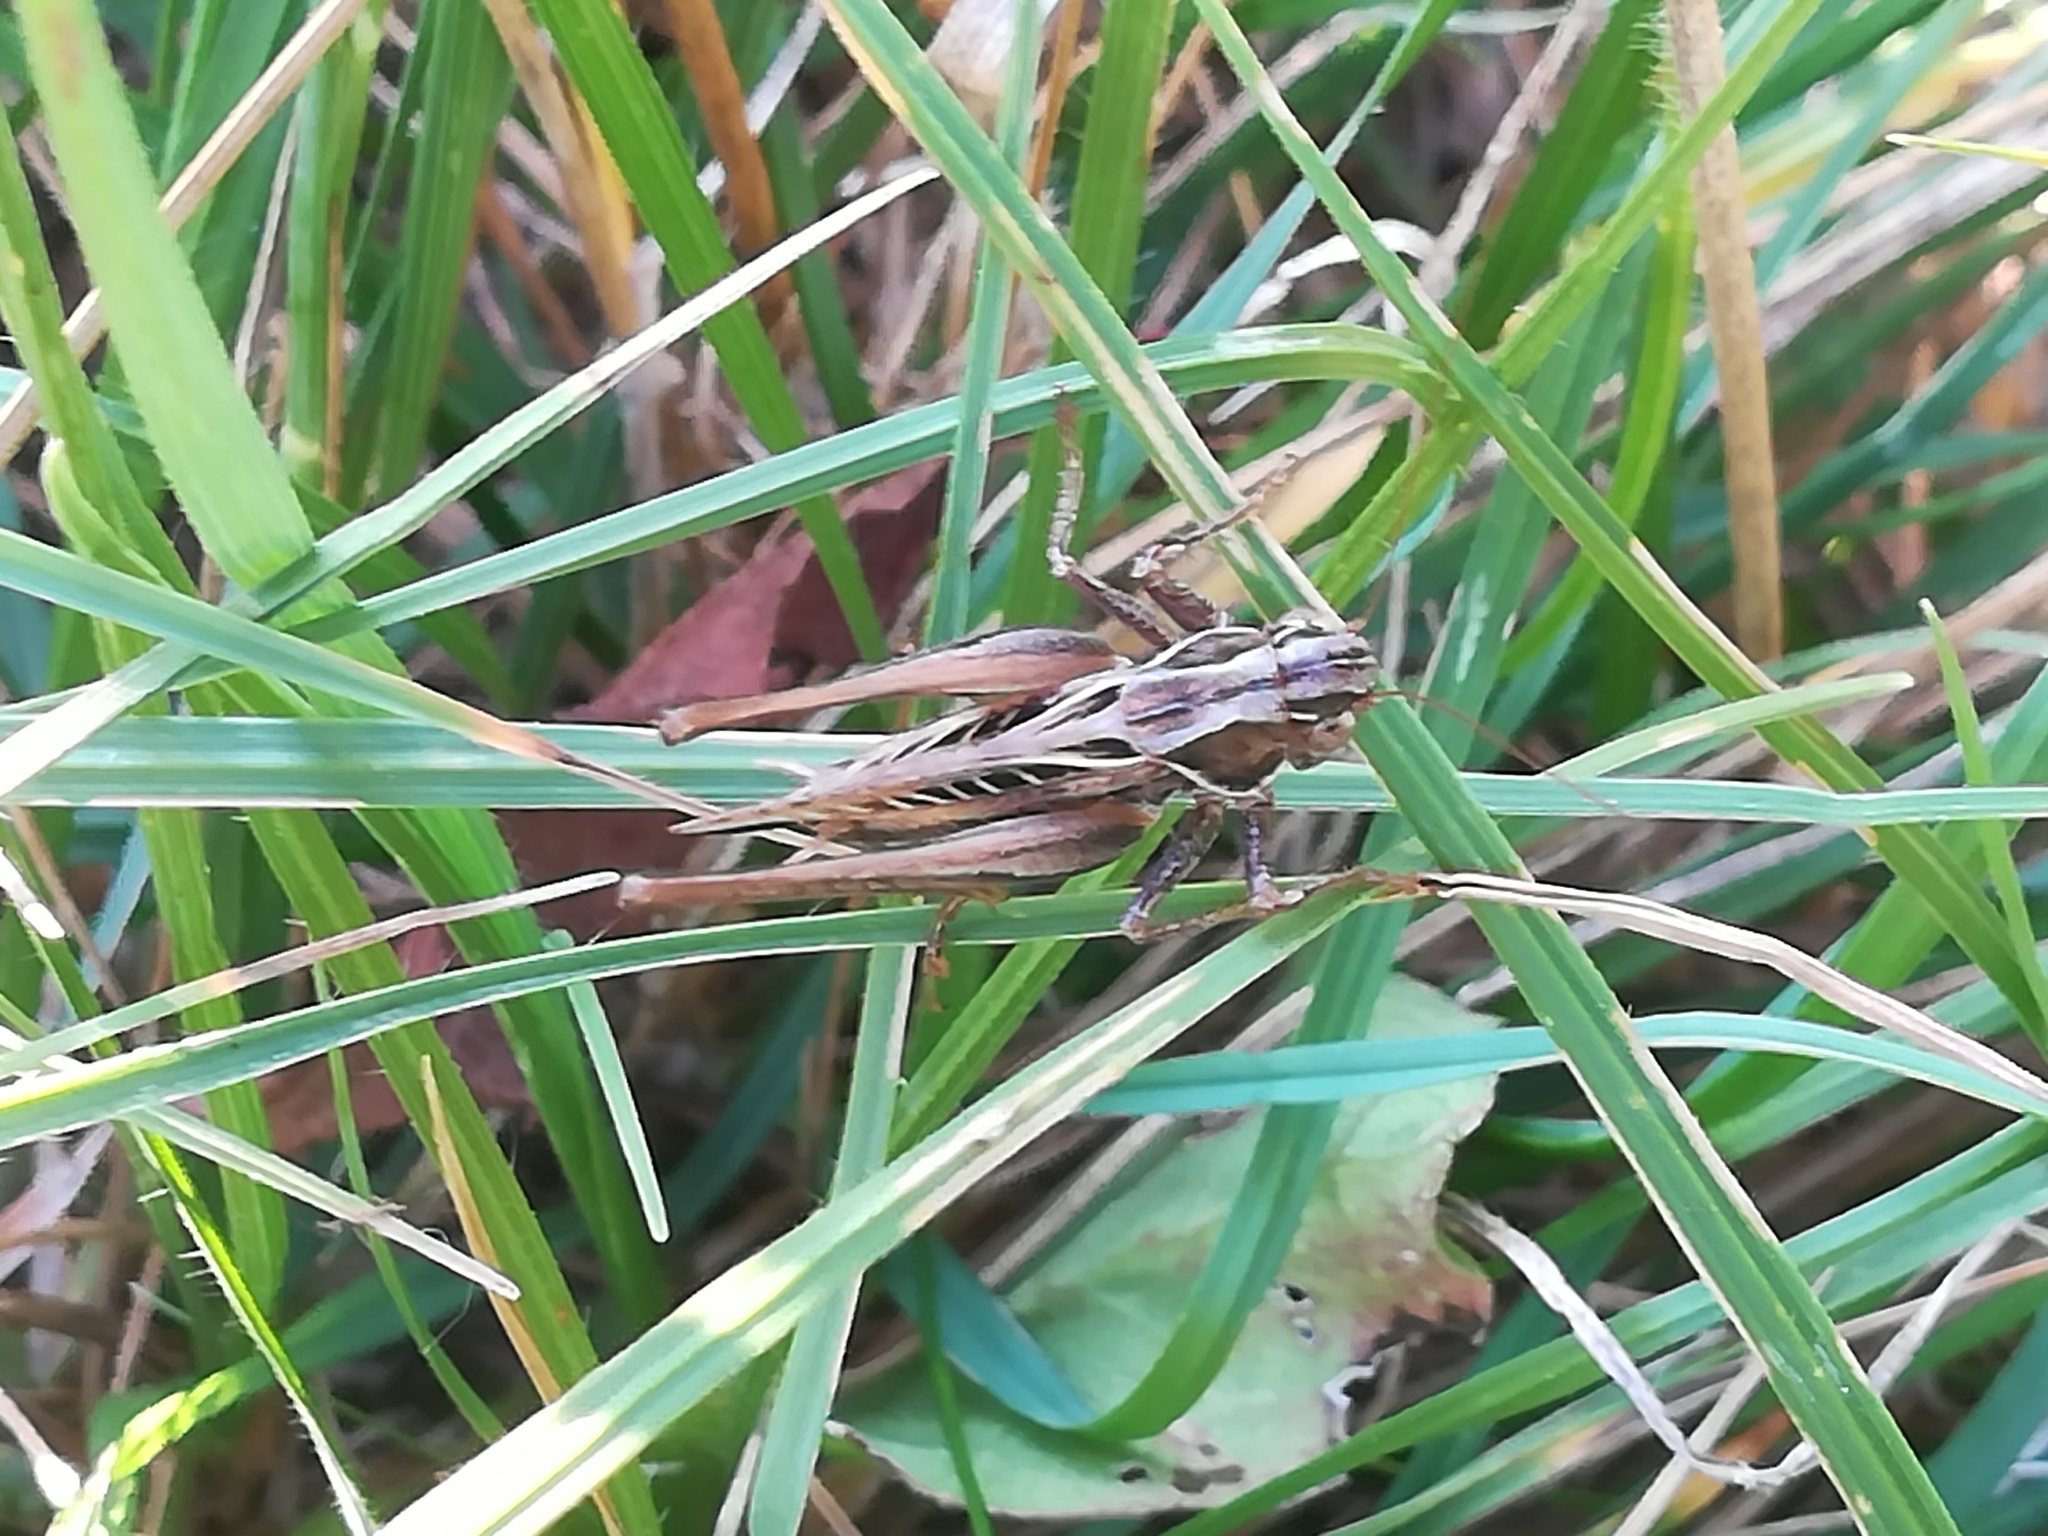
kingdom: Animalia
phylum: Arthropoda
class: Insecta
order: Orthoptera
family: Tettigoniidae
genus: Tessellana
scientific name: Tessellana tessellata
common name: Grasshopper
